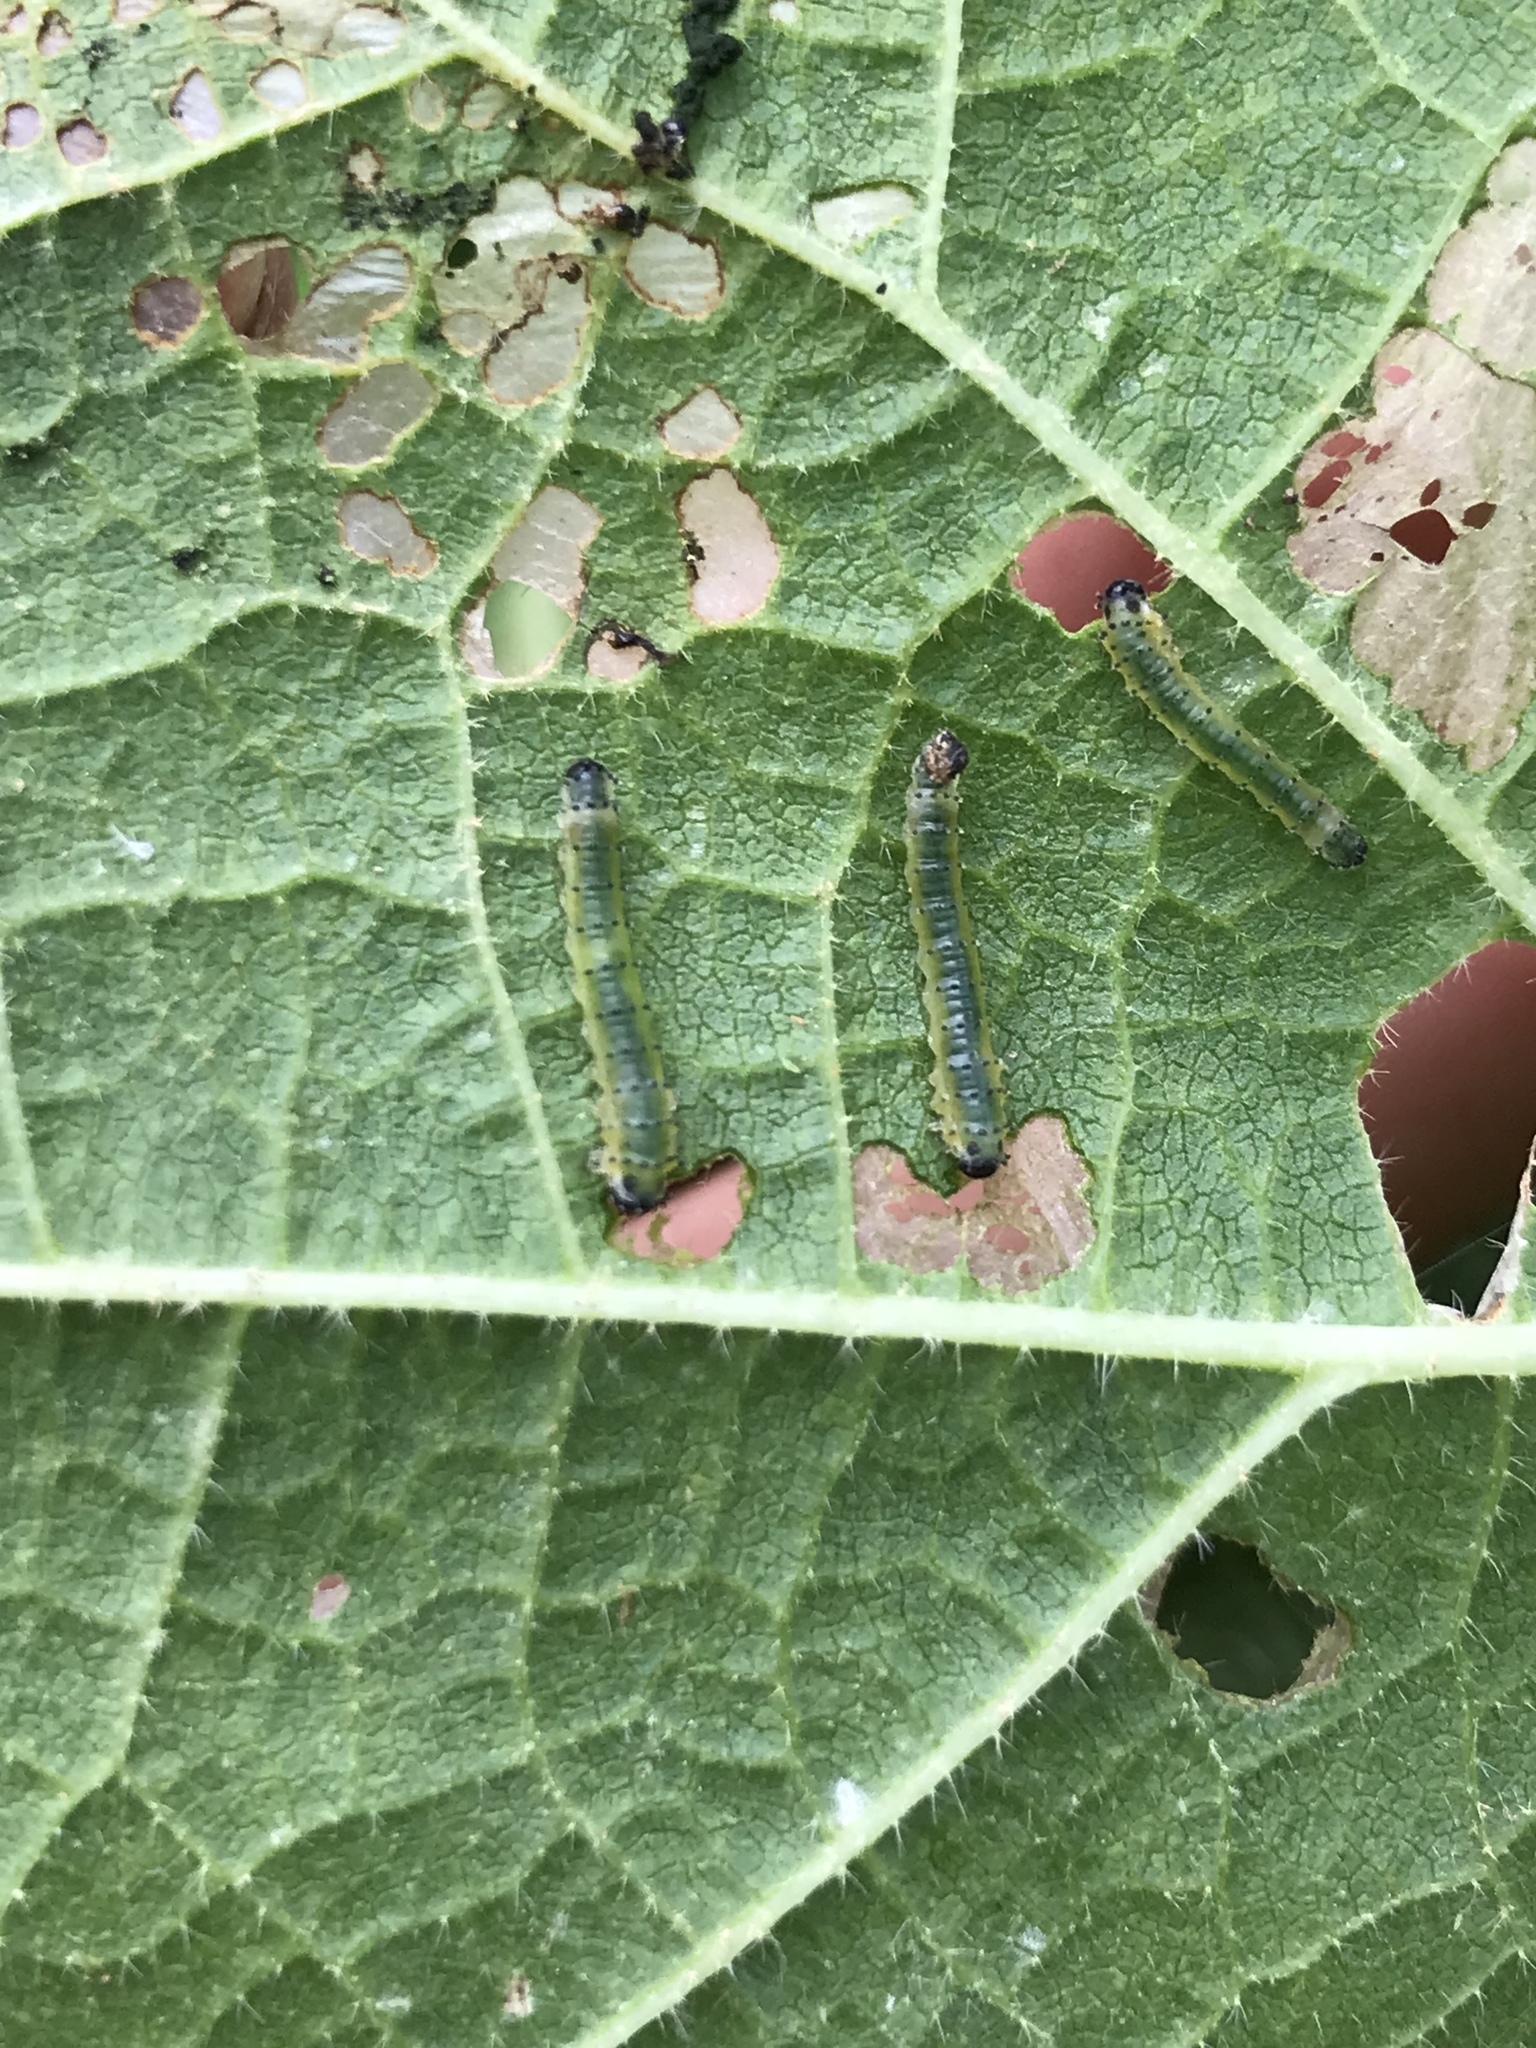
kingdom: Animalia
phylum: Arthropoda
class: Insecta
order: Hymenoptera
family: Argidae
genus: Atomacera
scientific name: Atomacera
